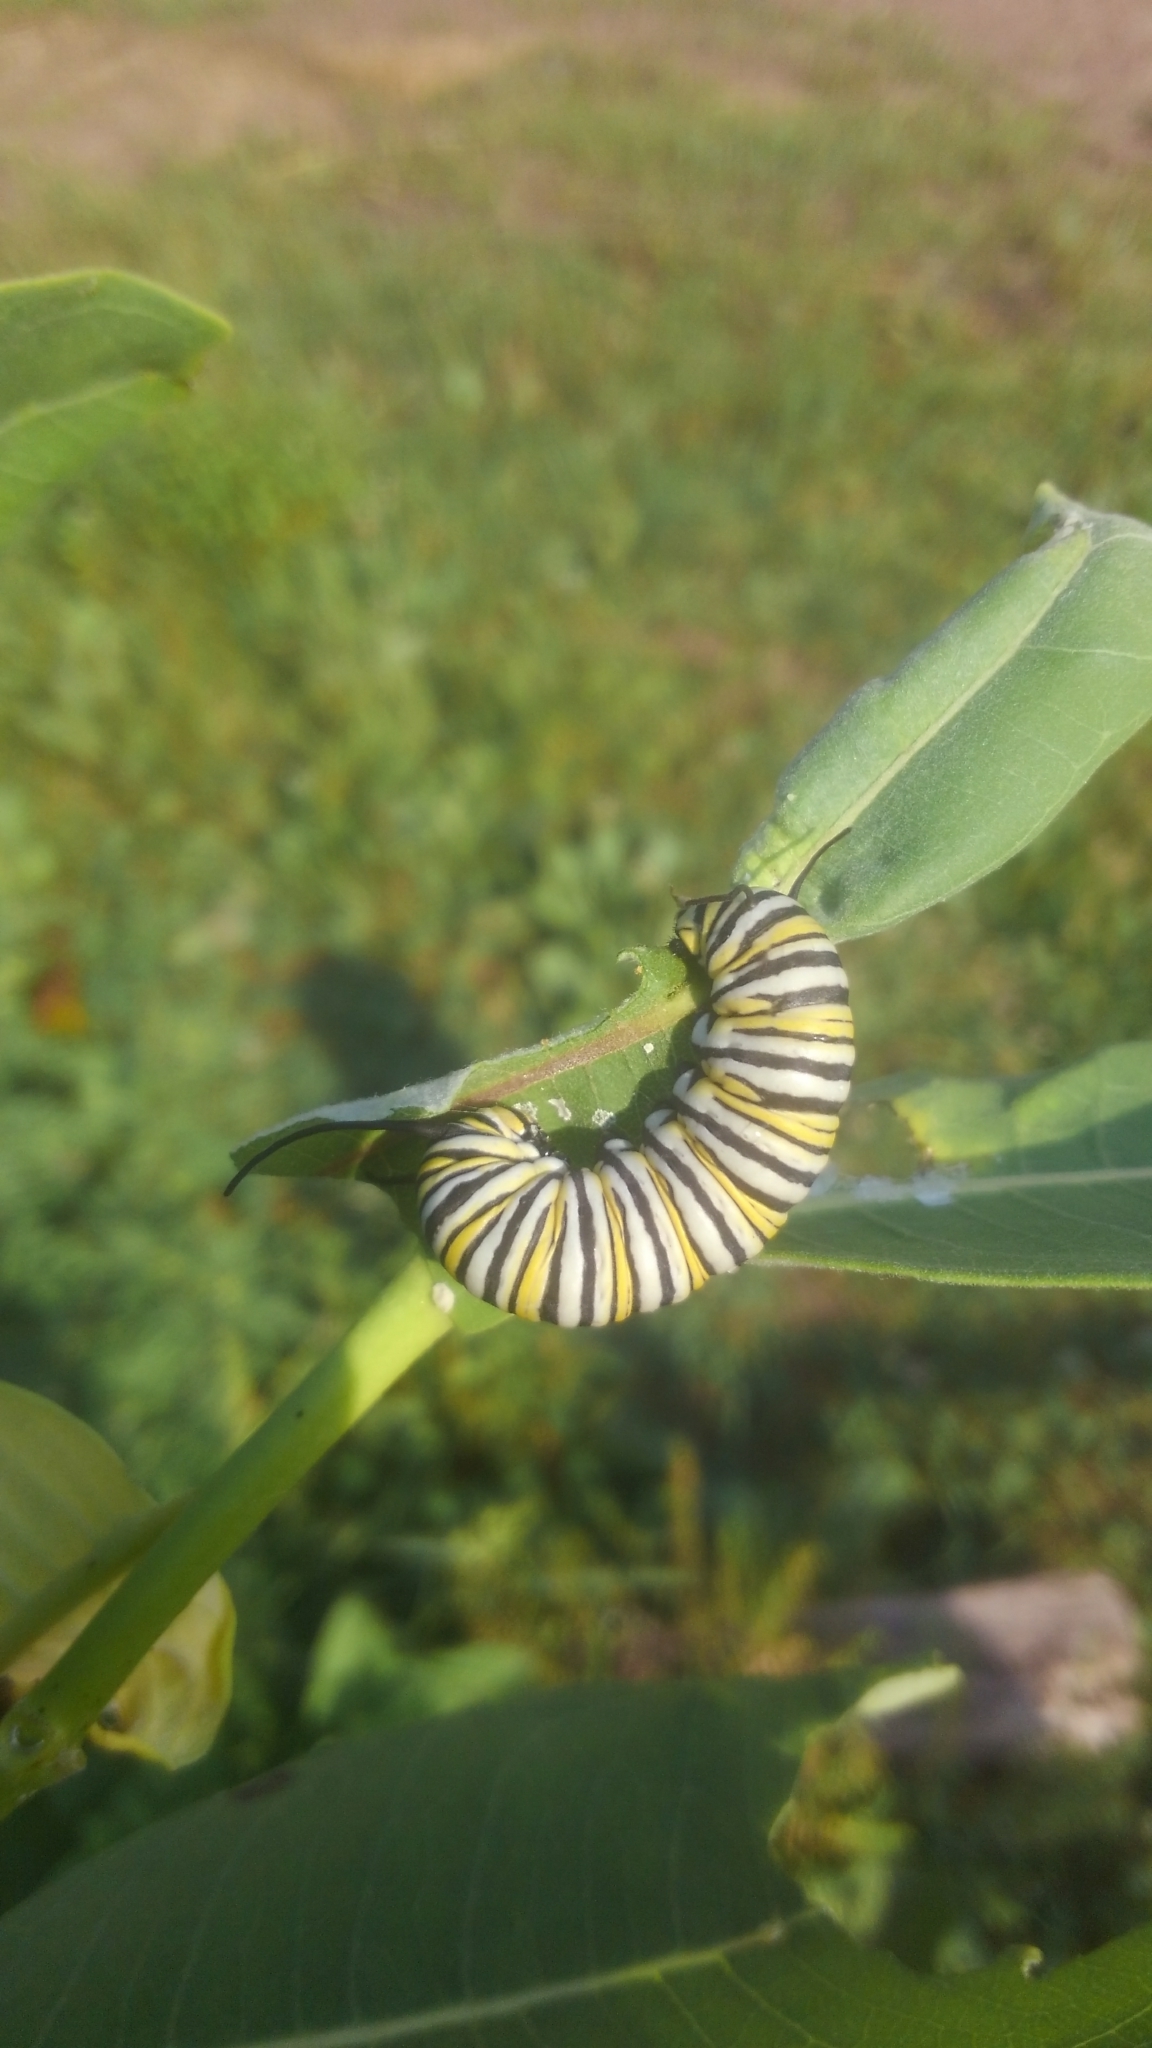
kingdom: Animalia
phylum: Arthropoda
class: Insecta
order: Lepidoptera
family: Nymphalidae
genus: Danaus
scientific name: Danaus plexippus
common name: Monarch
